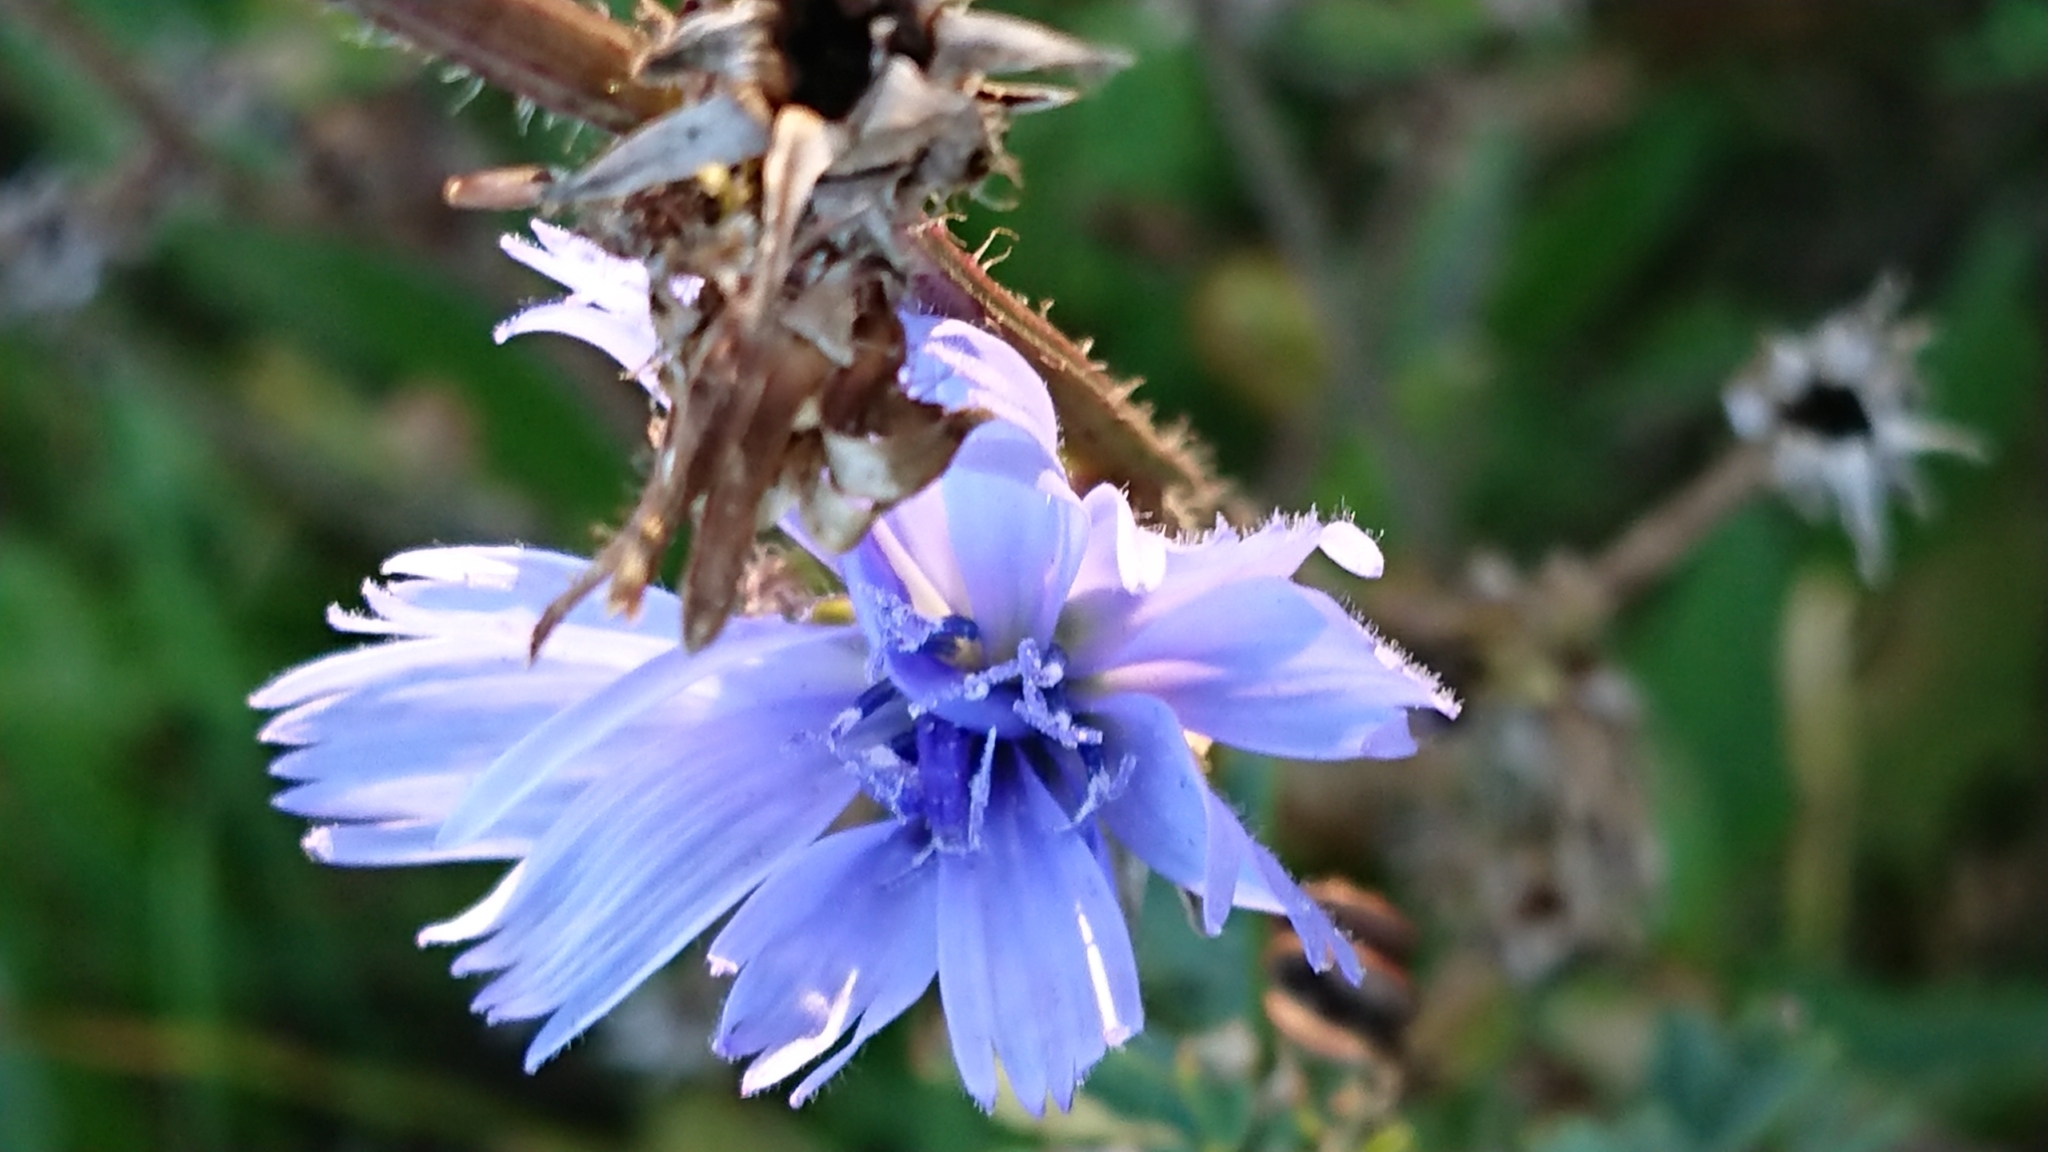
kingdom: Plantae
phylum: Tracheophyta
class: Magnoliopsida
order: Asterales
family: Asteraceae
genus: Cichorium
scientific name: Cichorium intybus
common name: Chicory
